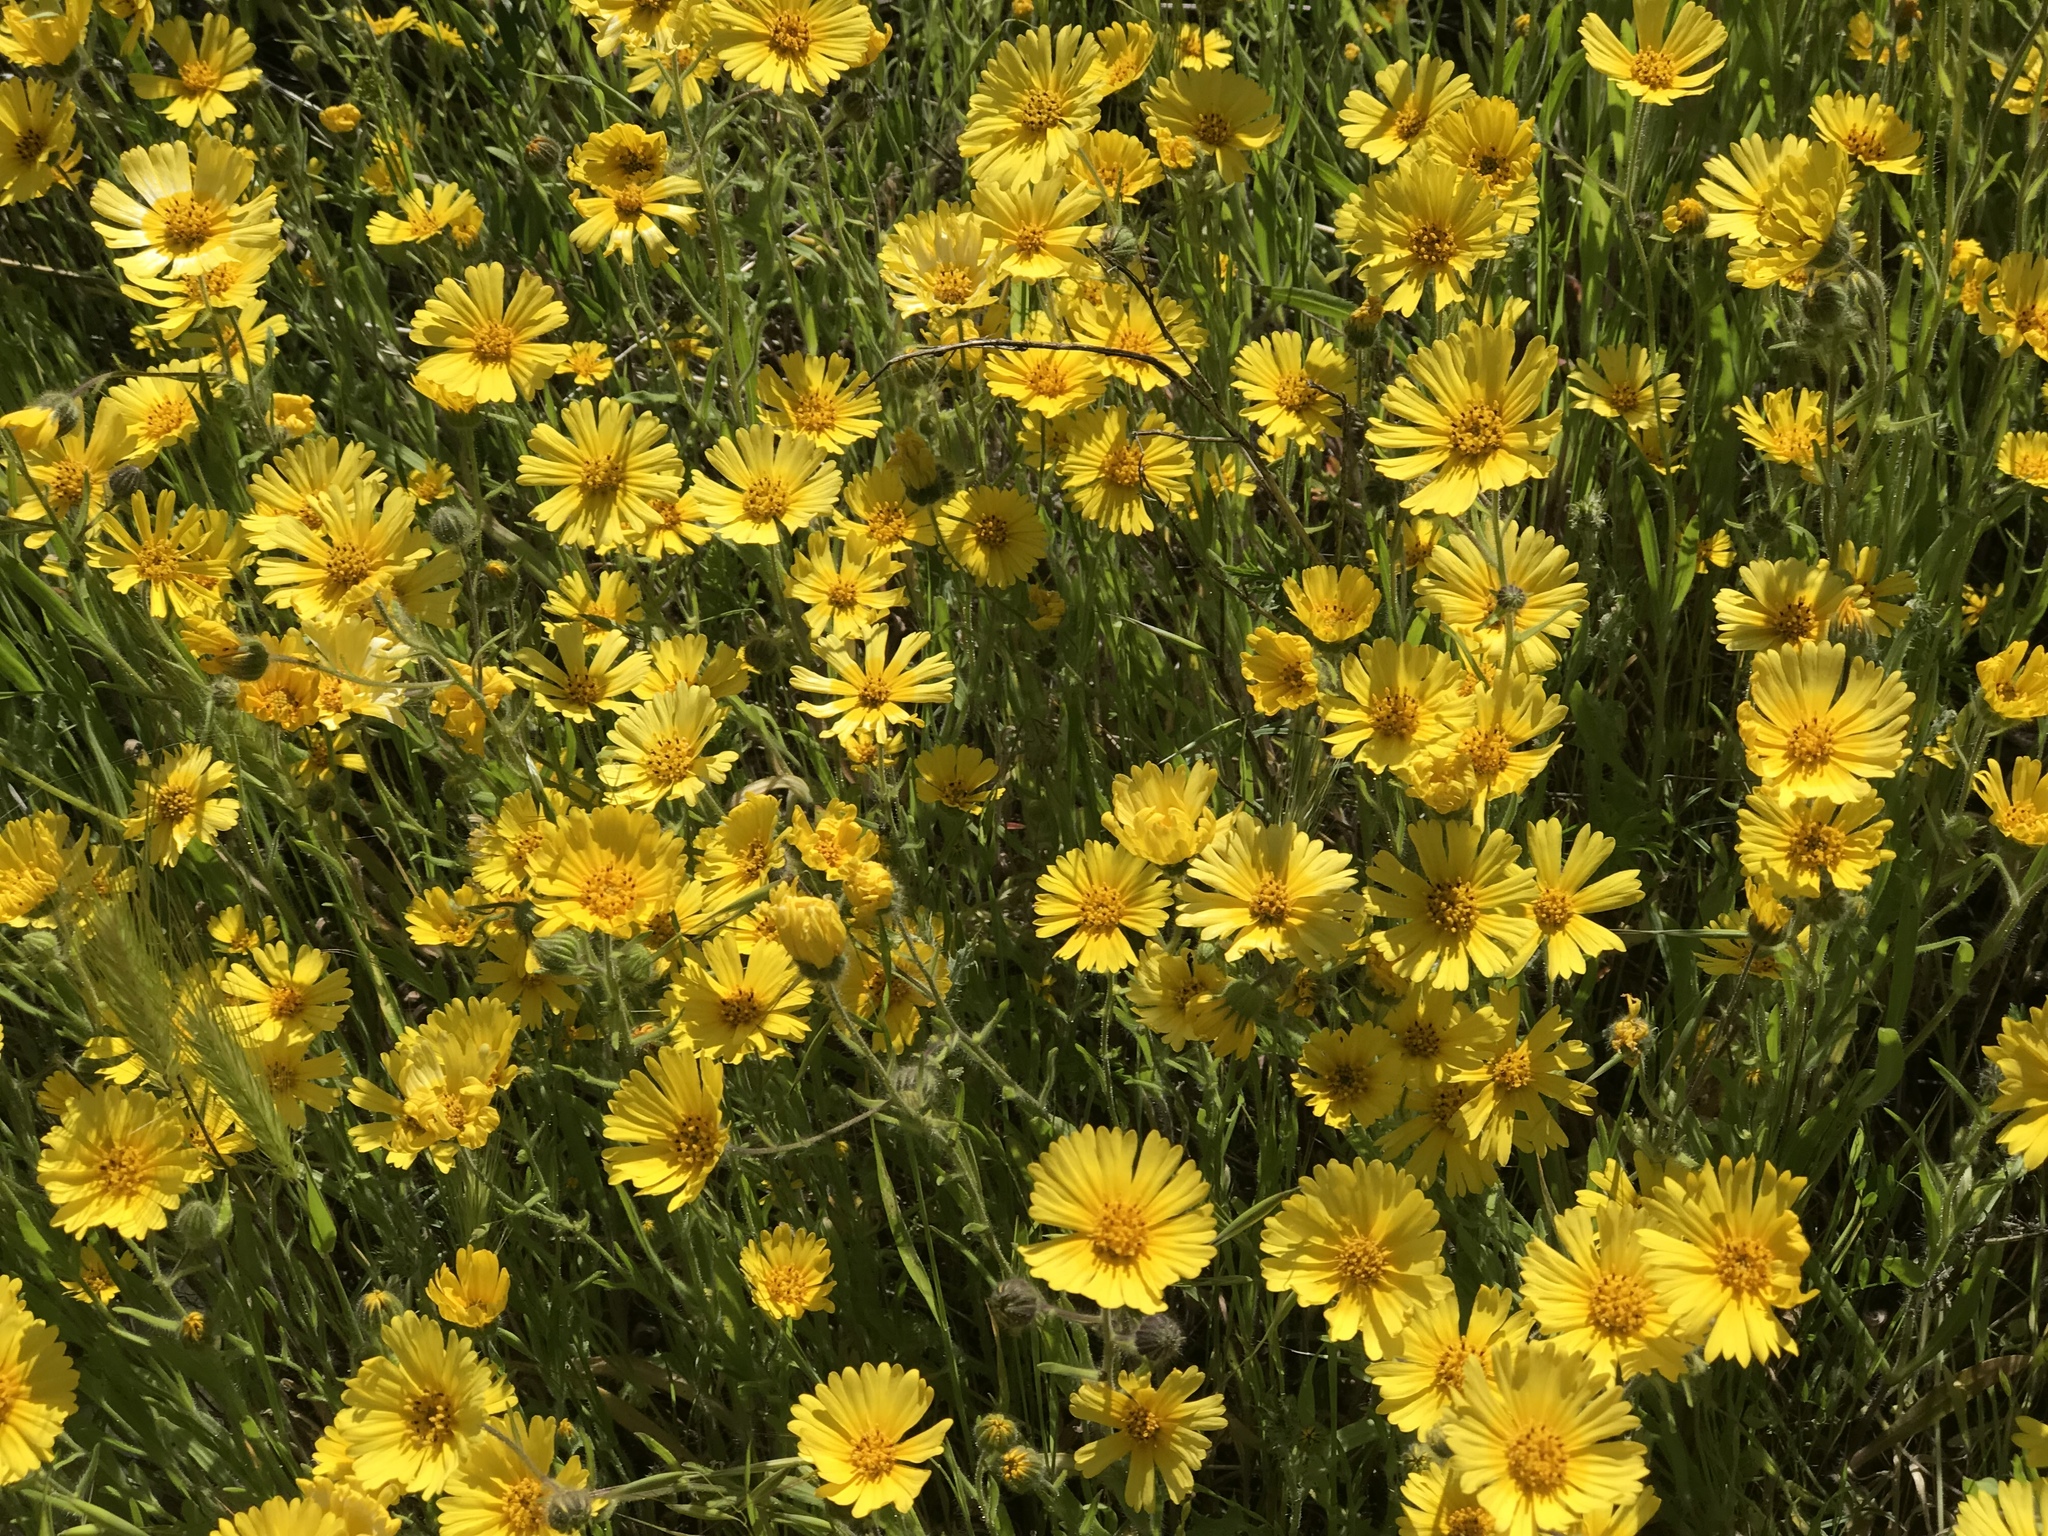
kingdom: Plantae
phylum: Tracheophyta
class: Magnoliopsida
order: Asterales
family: Asteraceae
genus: Madia
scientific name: Madia elegans
